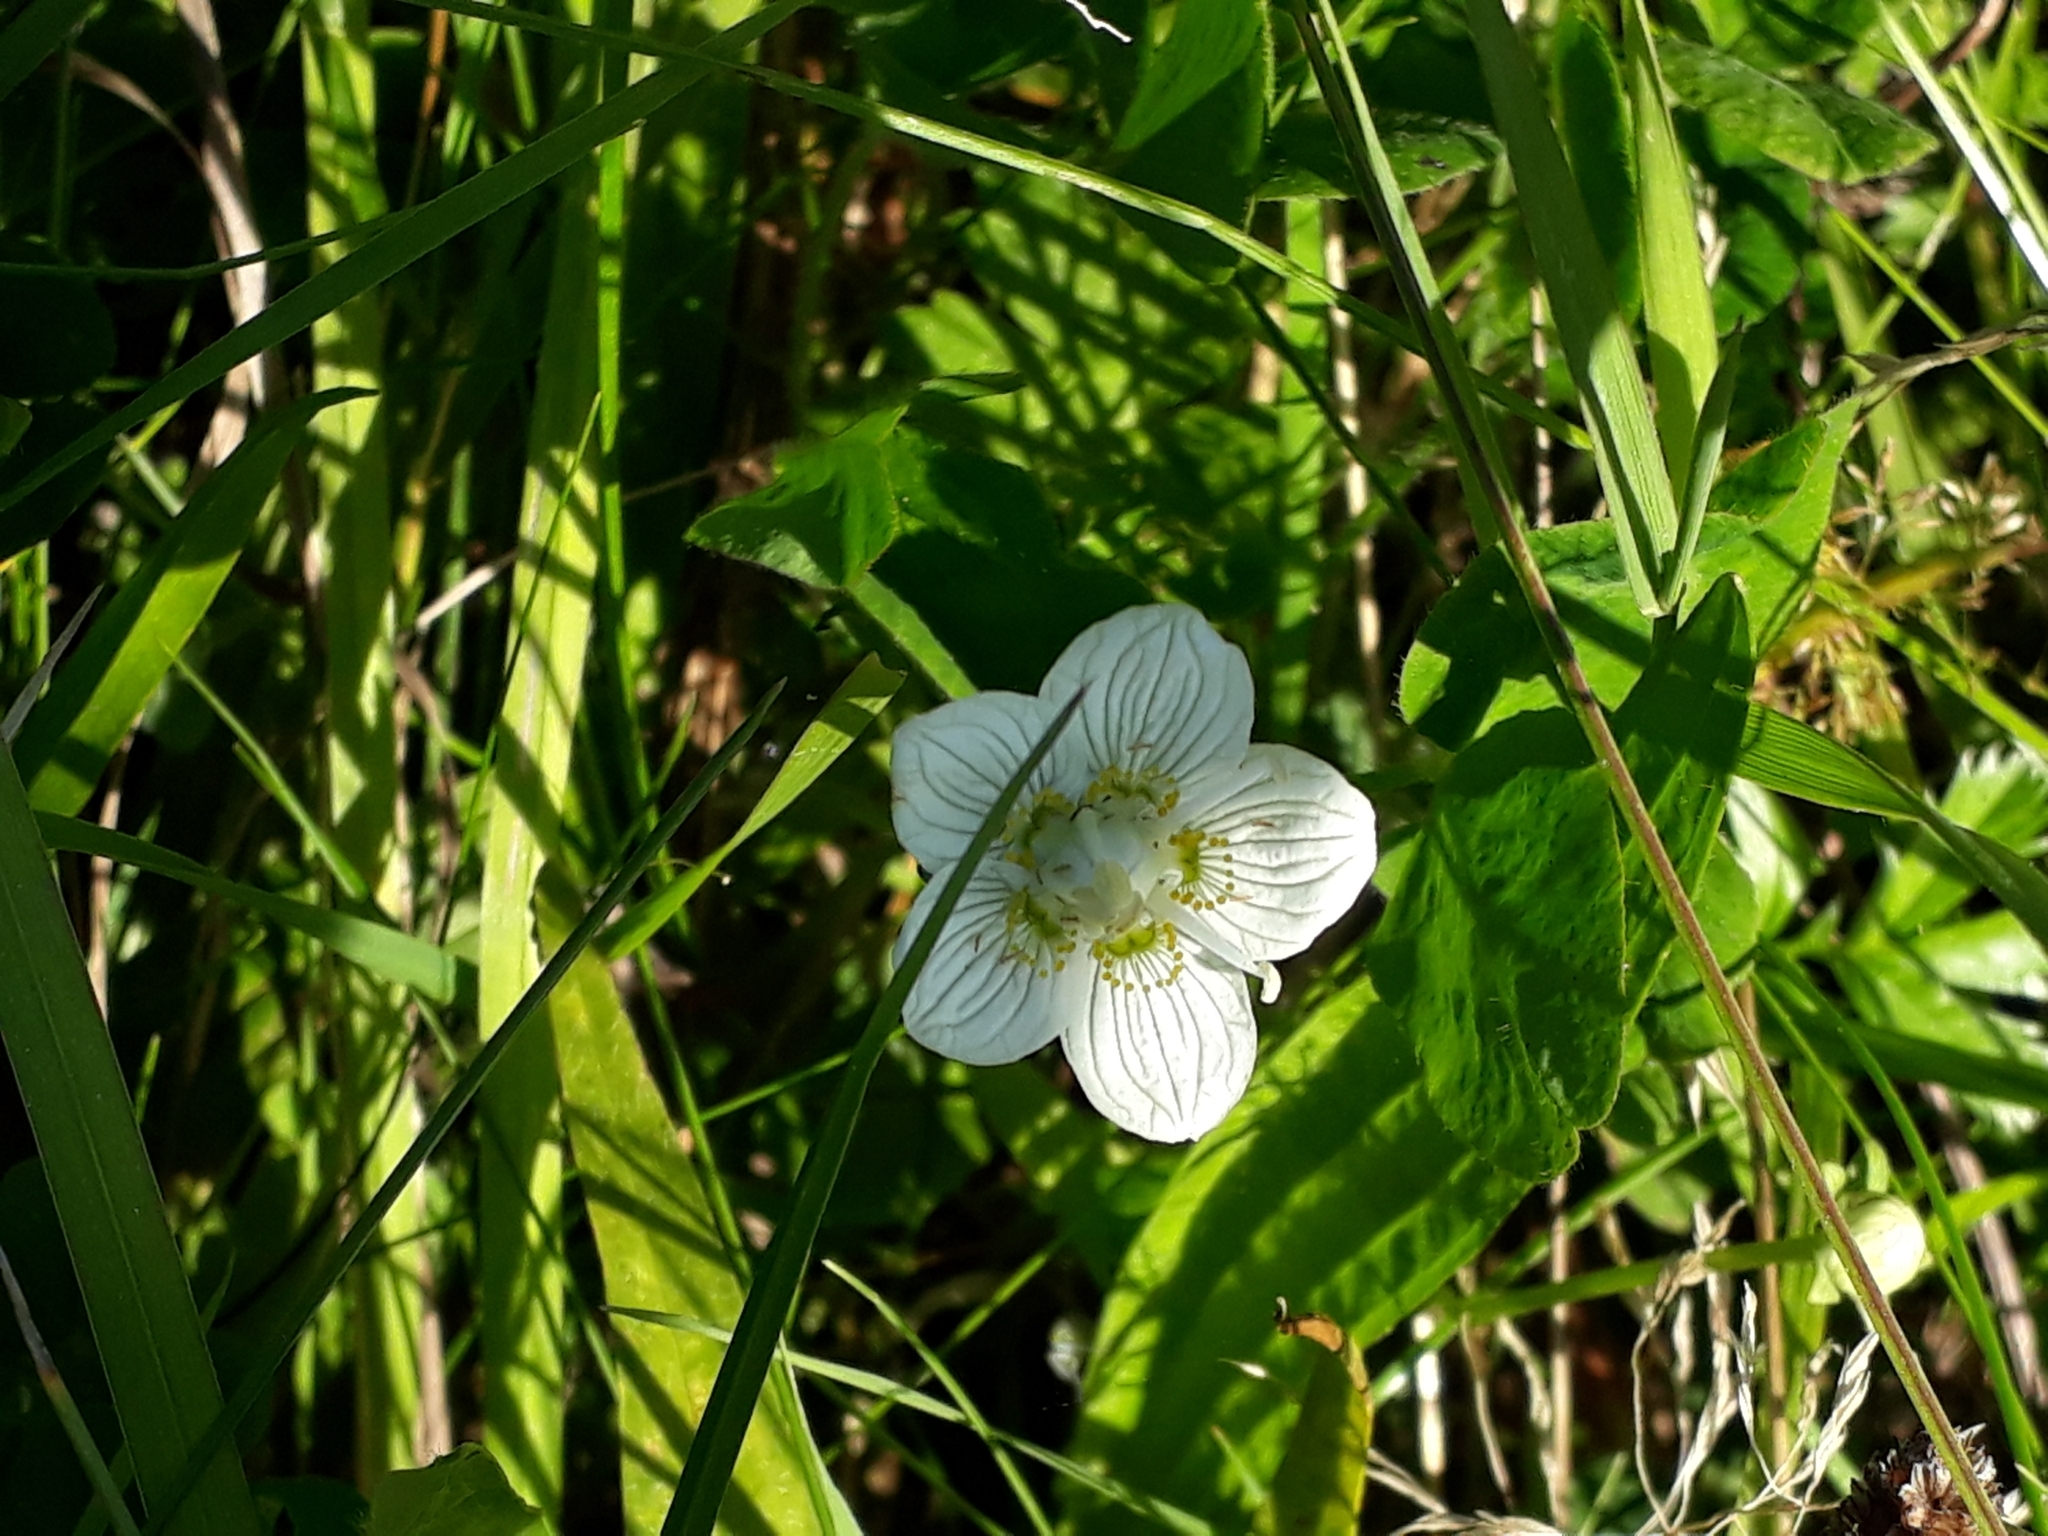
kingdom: Plantae
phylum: Tracheophyta
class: Magnoliopsida
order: Celastrales
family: Parnassiaceae
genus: Parnassia
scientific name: Parnassia palustris
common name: Grass-of-parnassus
